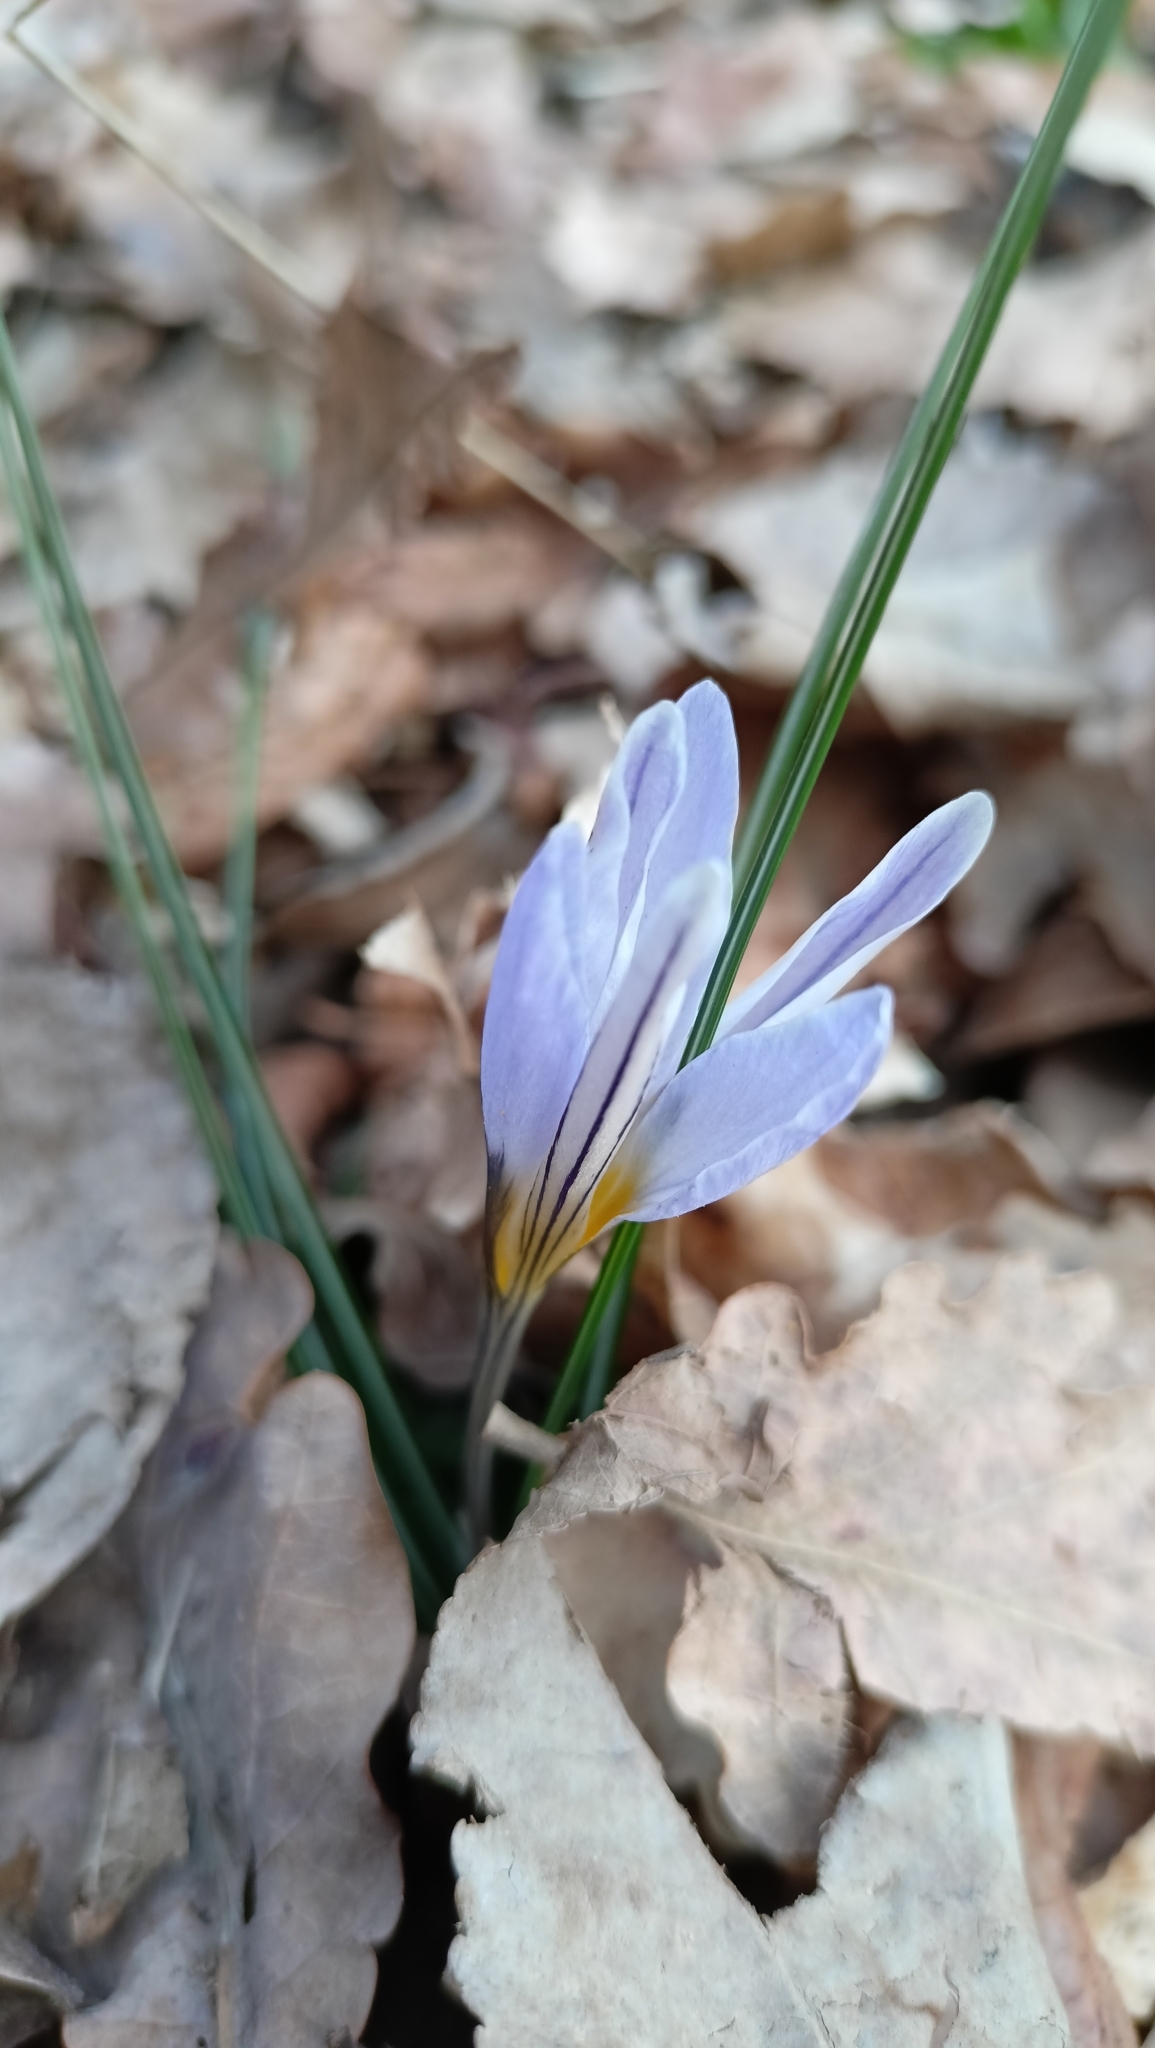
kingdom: Plantae
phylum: Tracheophyta
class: Liliopsida
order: Asparagales
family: Iridaceae
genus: Crocus
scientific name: Crocus biflorus
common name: Silvery crocus
